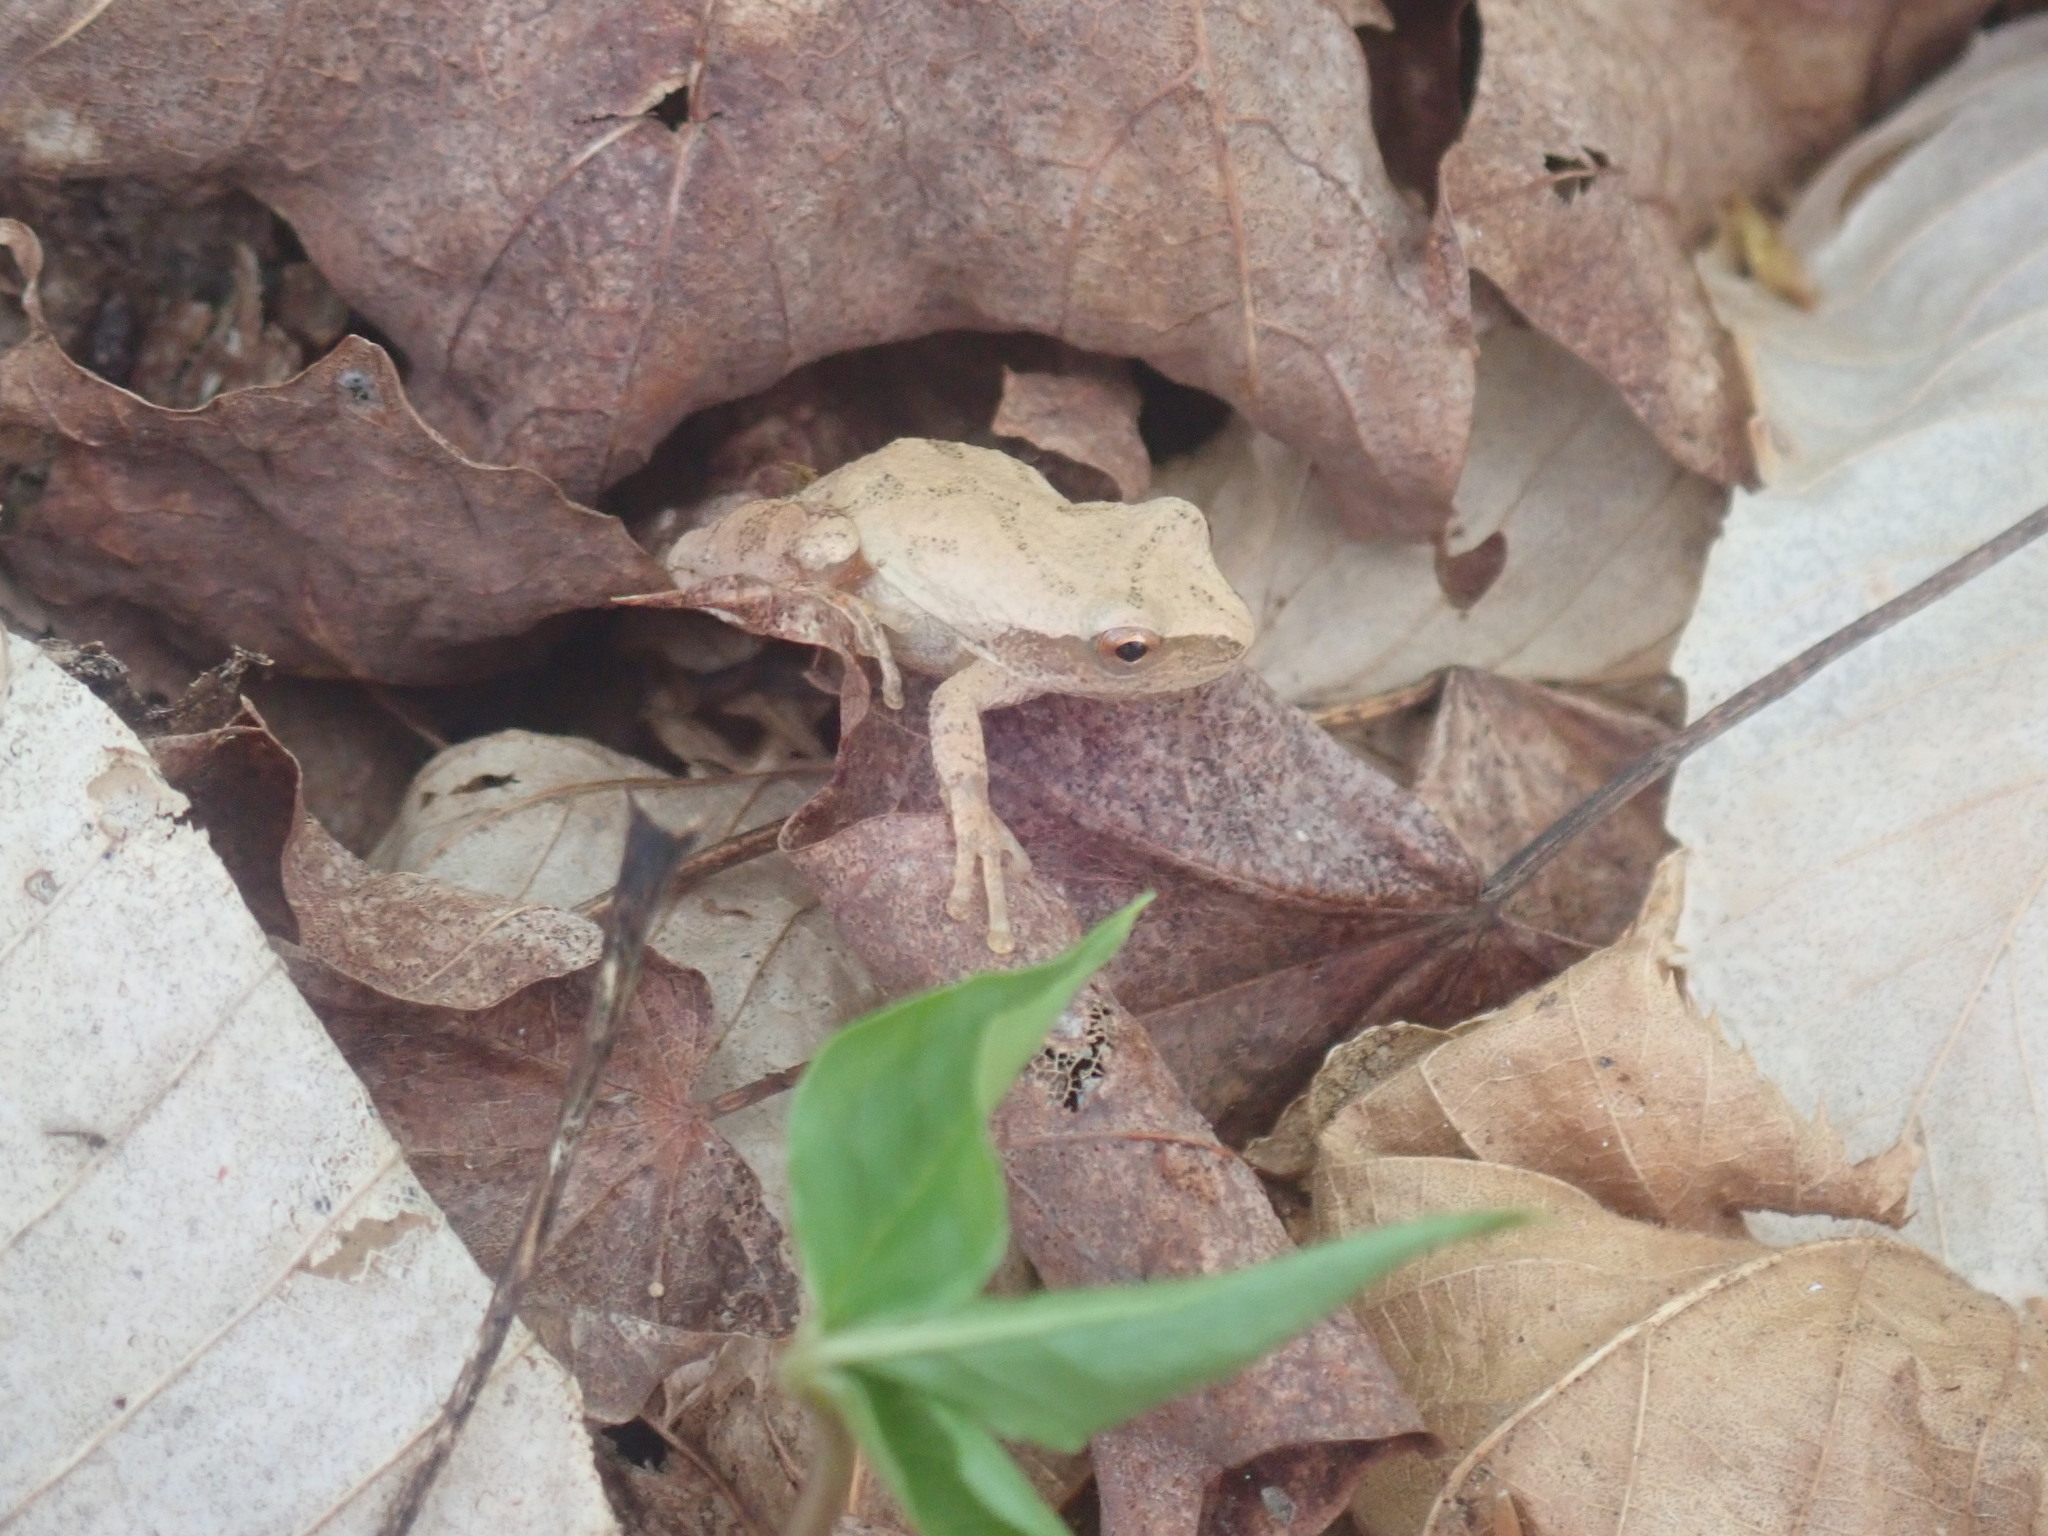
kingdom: Animalia
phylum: Chordata
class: Amphibia
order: Anura
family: Hylidae
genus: Pseudacris
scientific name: Pseudacris crucifer
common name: Spring peeper
